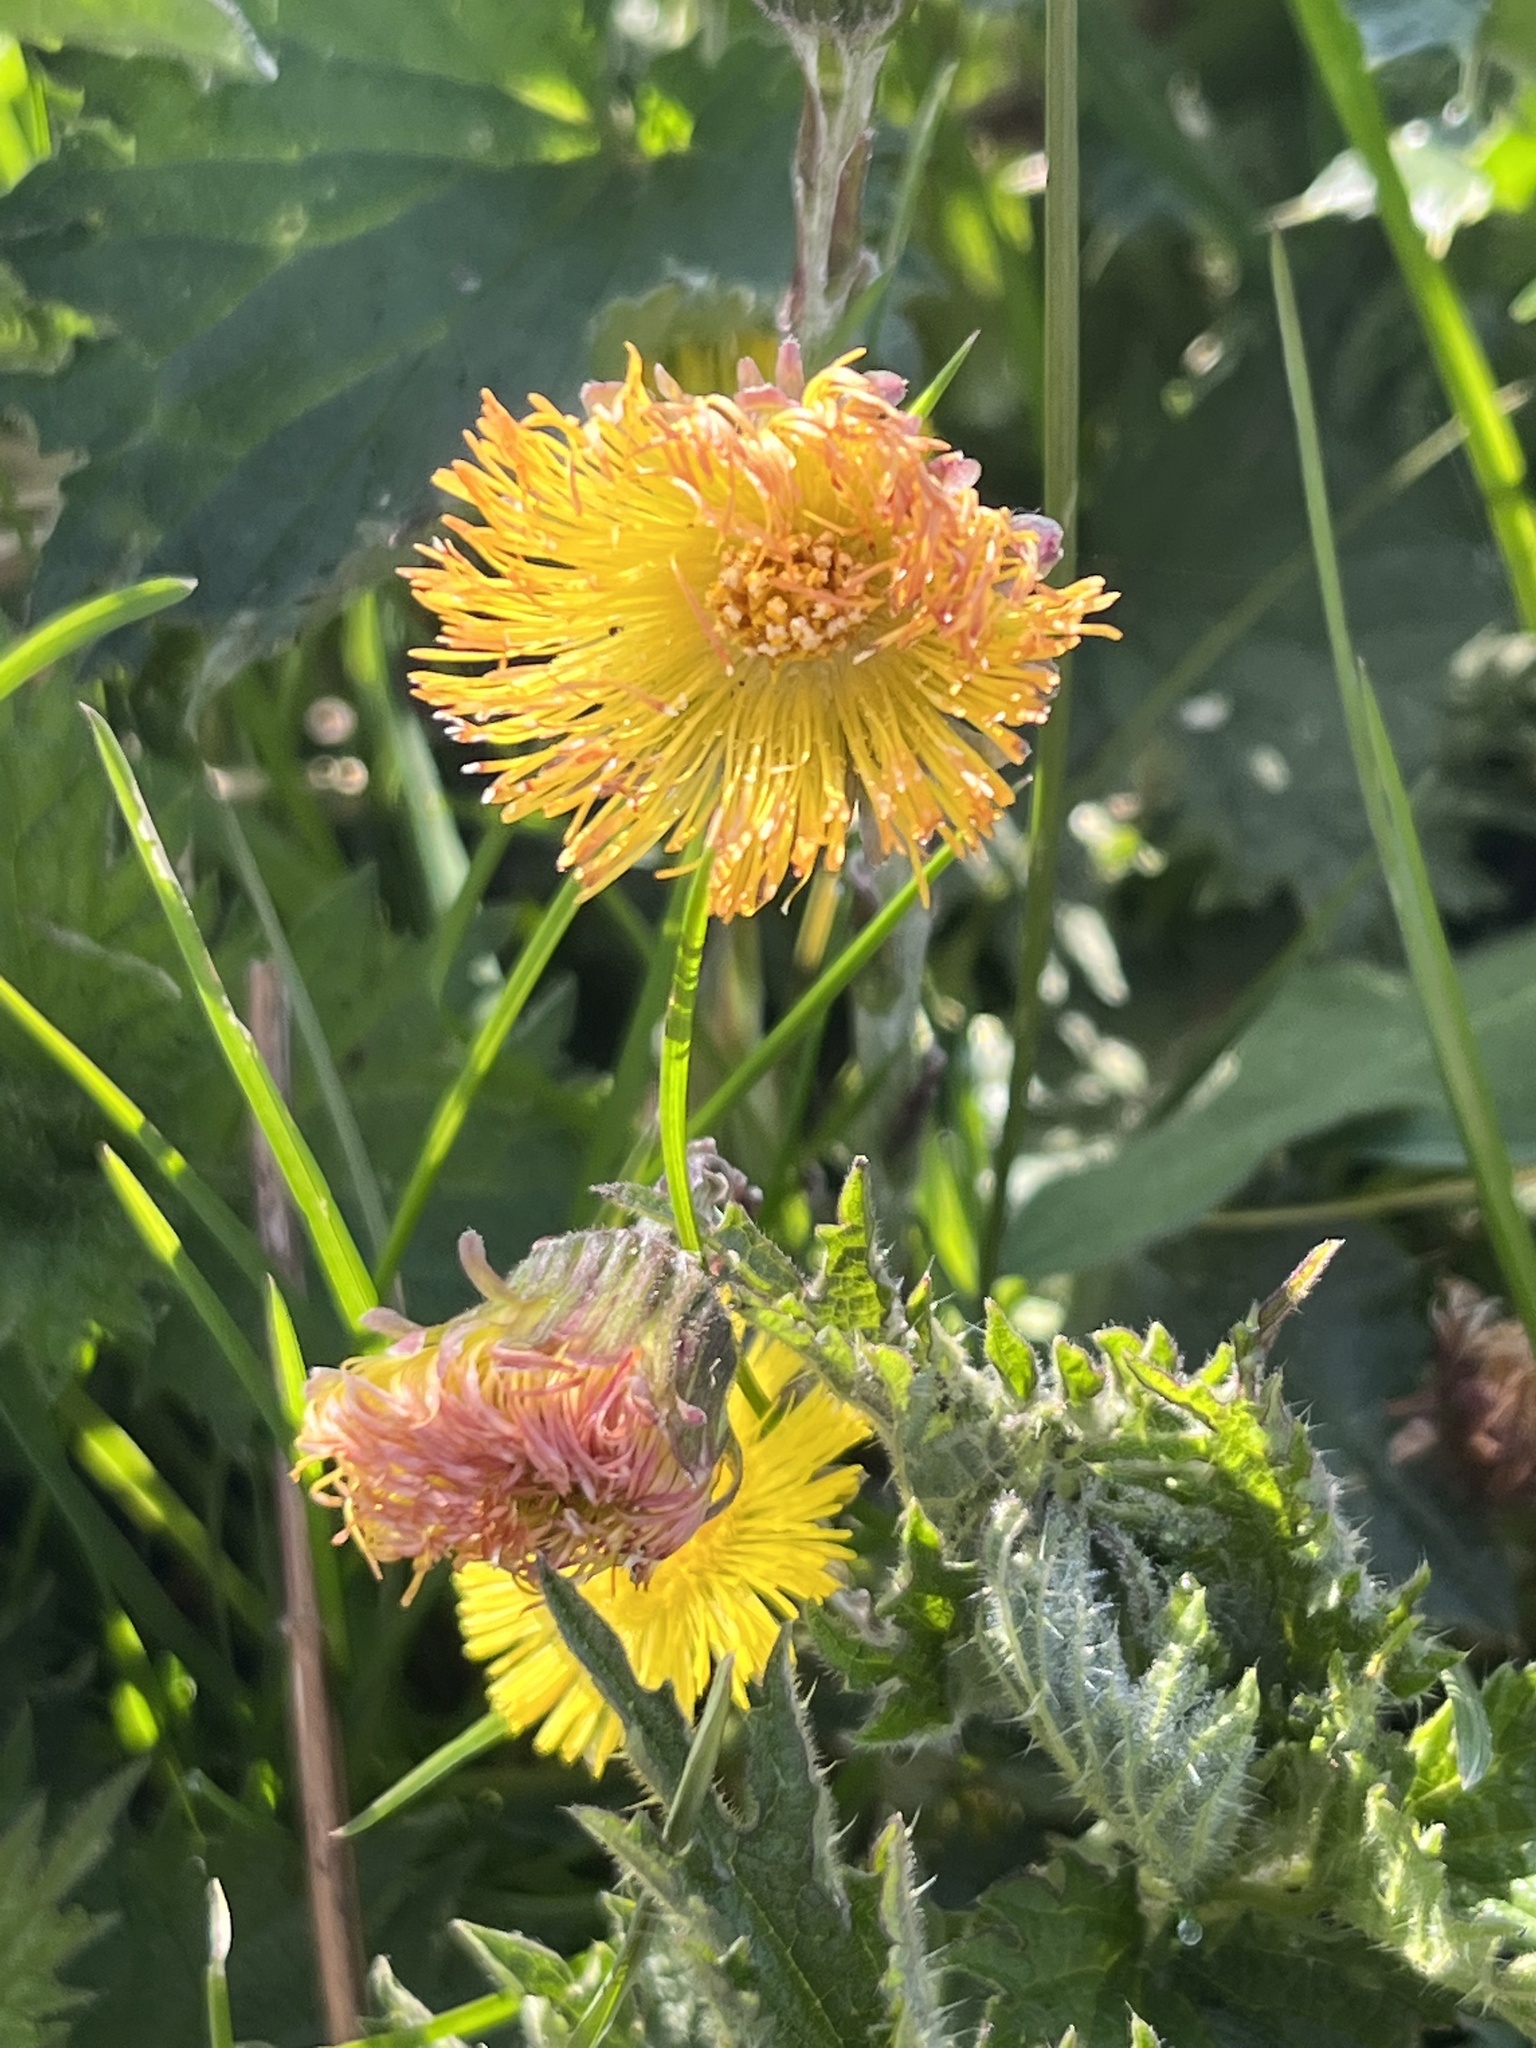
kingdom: Plantae
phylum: Tracheophyta
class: Magnoliopsida
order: Asterales
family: Asteraceae
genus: Tussilago
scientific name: Tussilago farfara
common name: Coltsfoot
